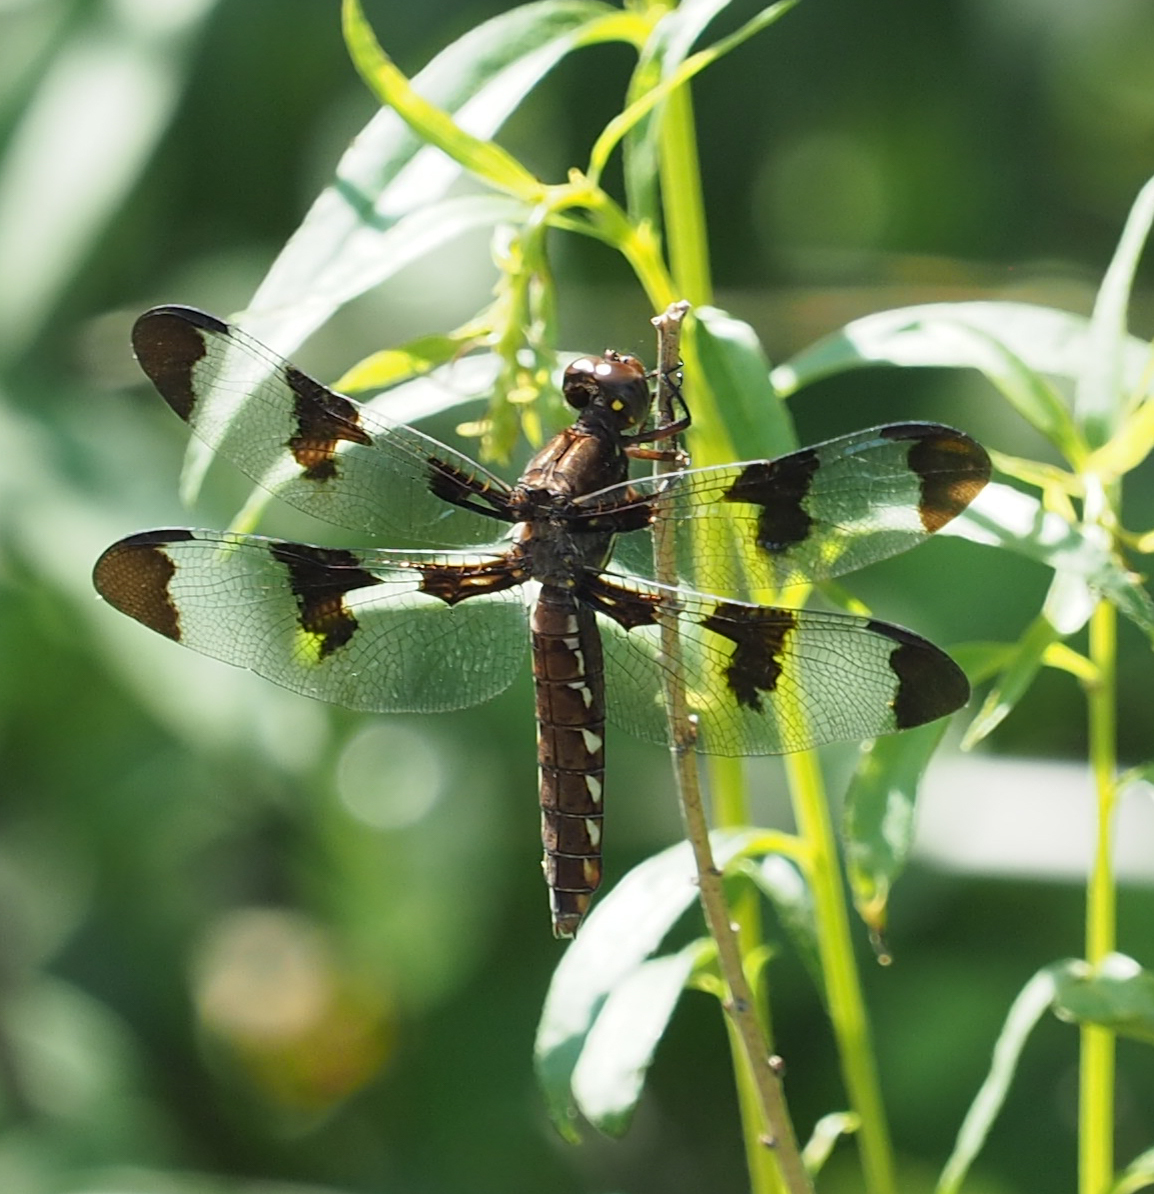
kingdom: Animalia
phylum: Arthropoda
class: Insecta
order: Odonata
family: Libellulidae
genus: Plathemis
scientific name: Plathemis lydia
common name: Common whitetail
